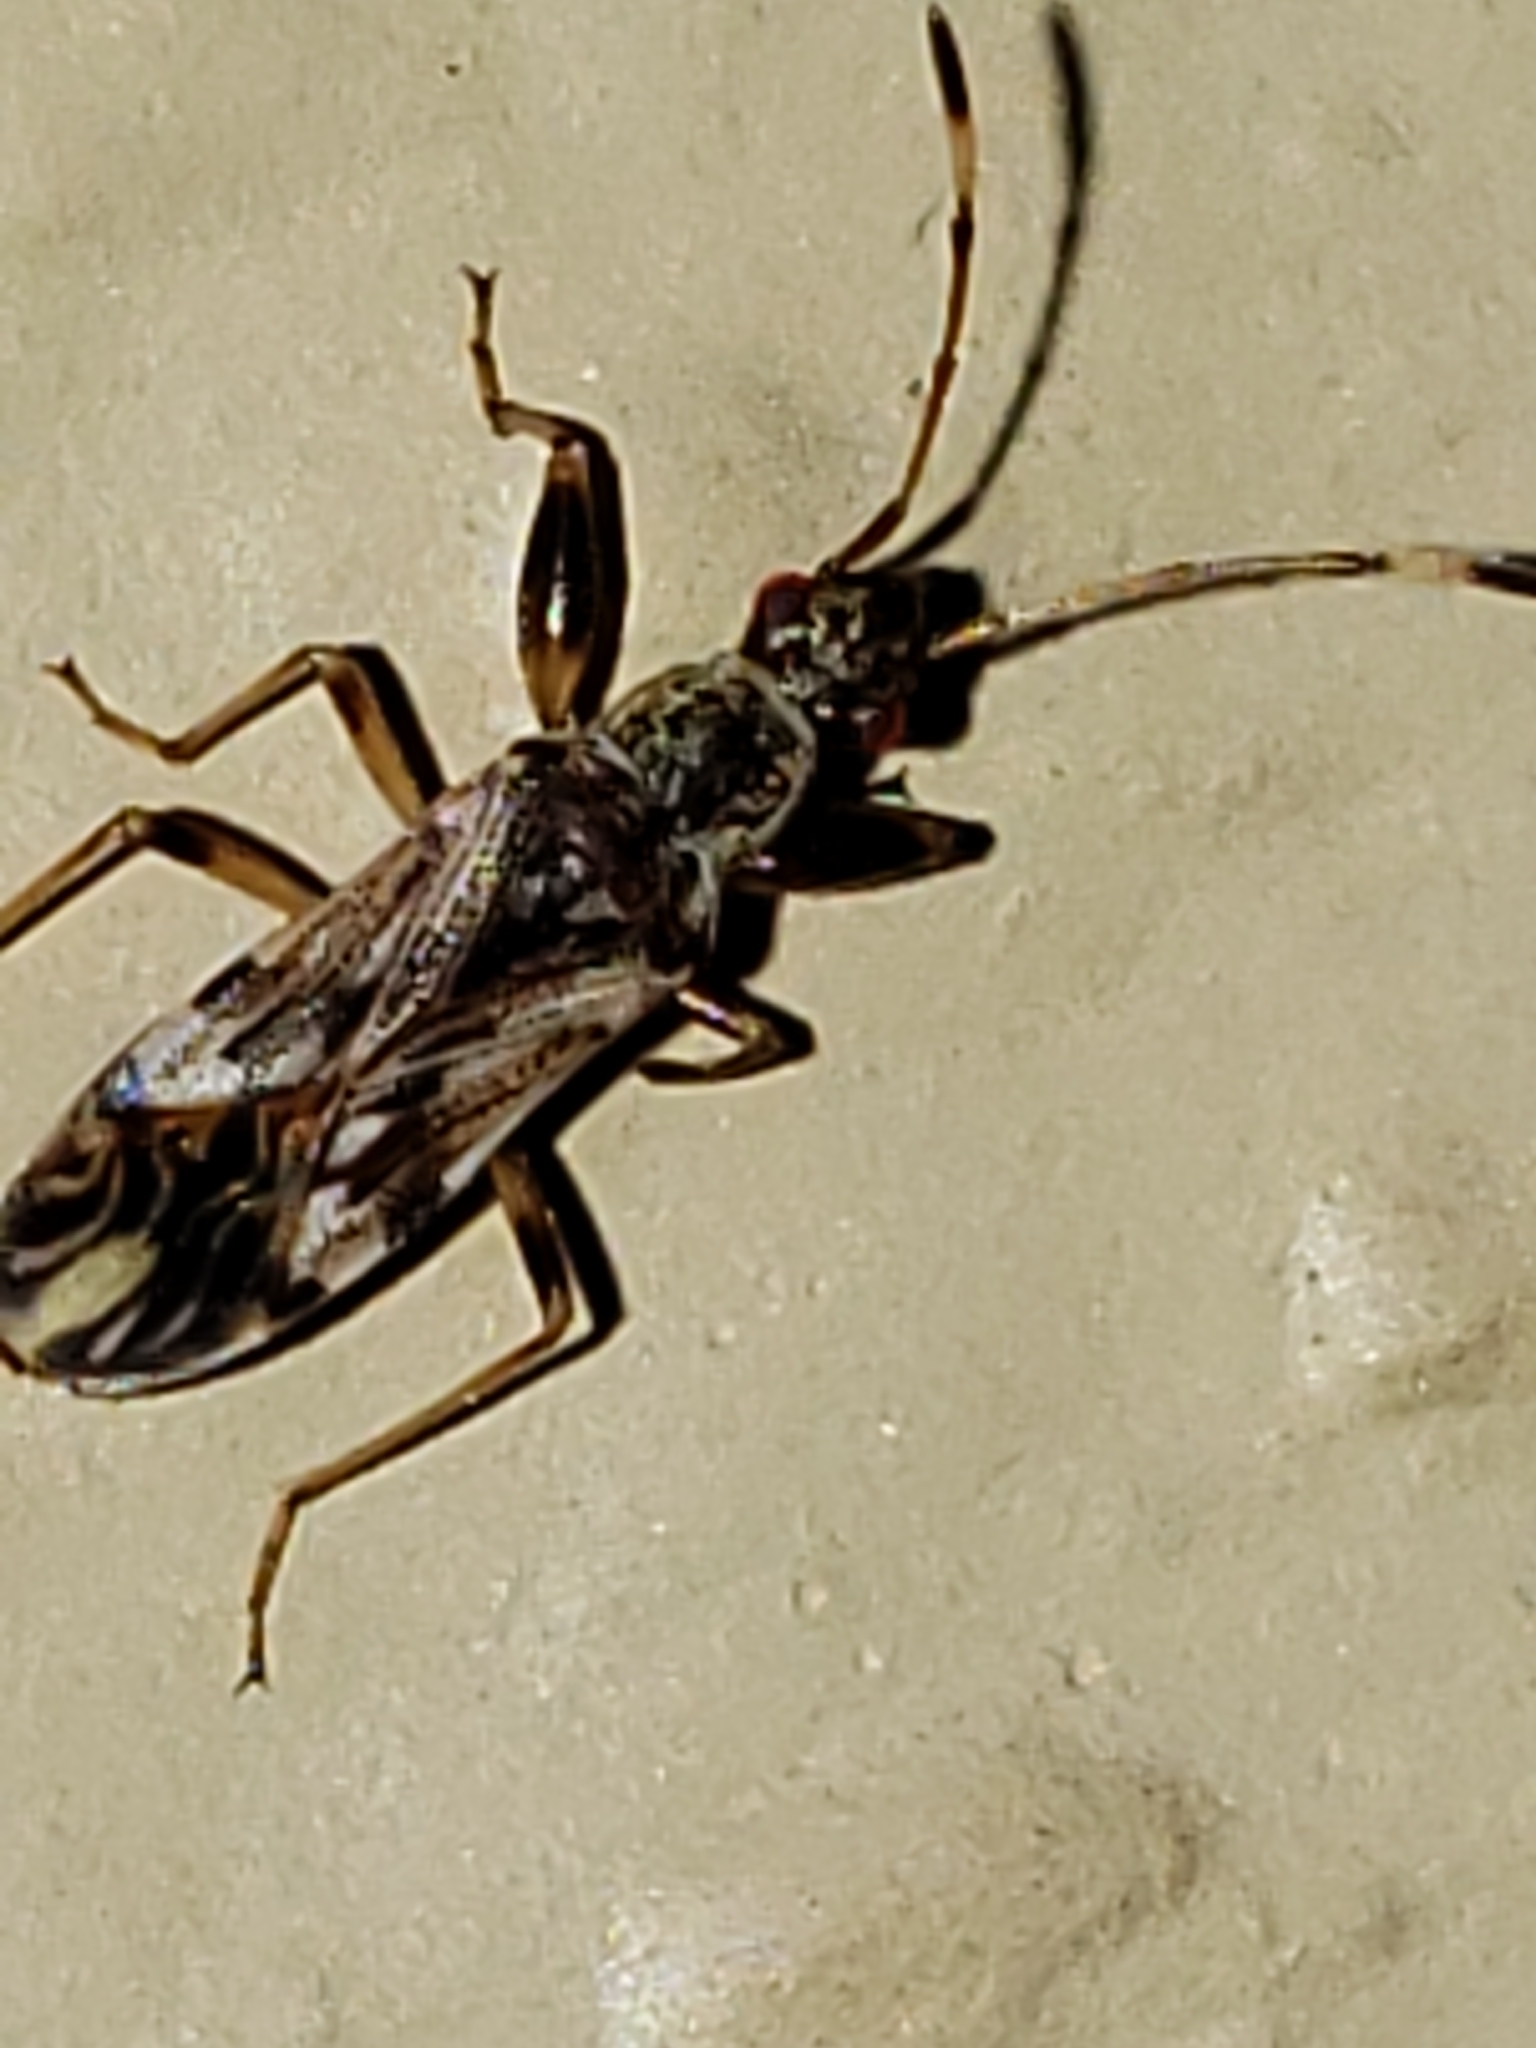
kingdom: Animalia
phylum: Arthropoda
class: Insecta
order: Hemiptera
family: Rhyparochromidae
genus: Neopamera
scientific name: Neopamera albocincta
